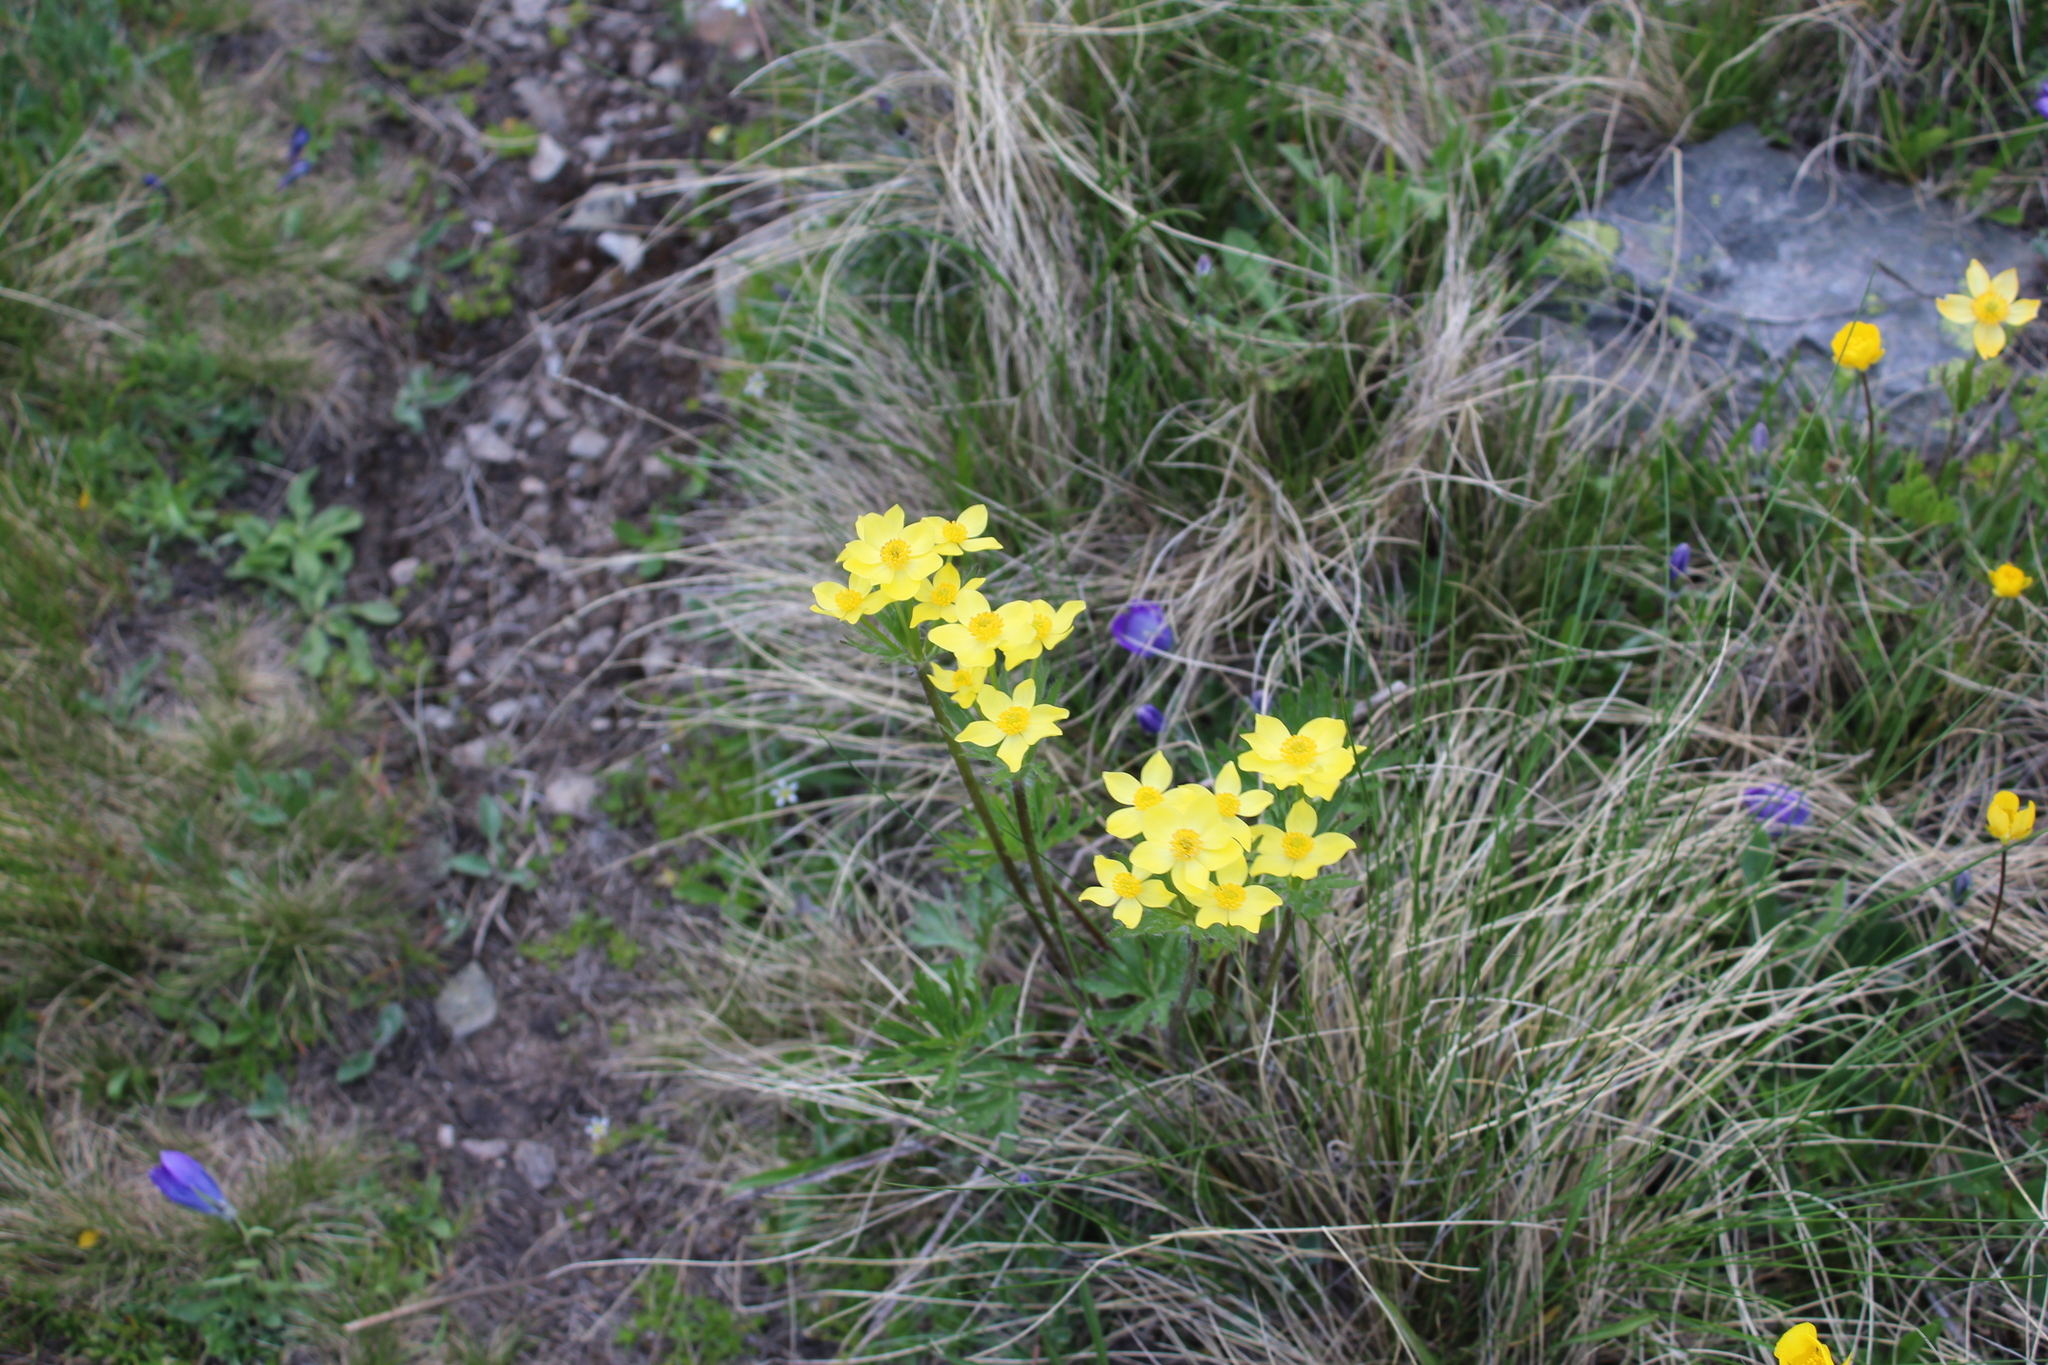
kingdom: Plantae
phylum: Tracheophyta
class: Magnoliopsida
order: Ranunculales
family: Ranunculaceae
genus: Anemonastrum
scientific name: Anemonastrum narcissiflorum
